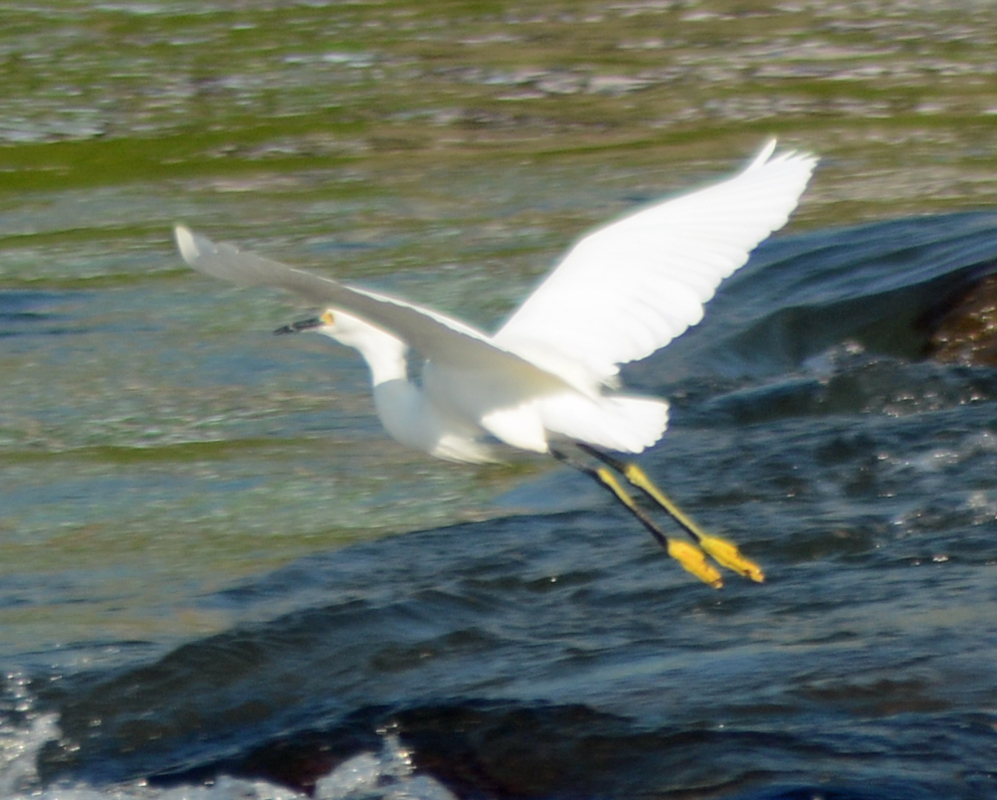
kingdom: Animalia
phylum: Chordata
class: Aves
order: Pelecaniformes
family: Ardeidae
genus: Egretta
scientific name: Egretta thula
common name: Snowy egret
